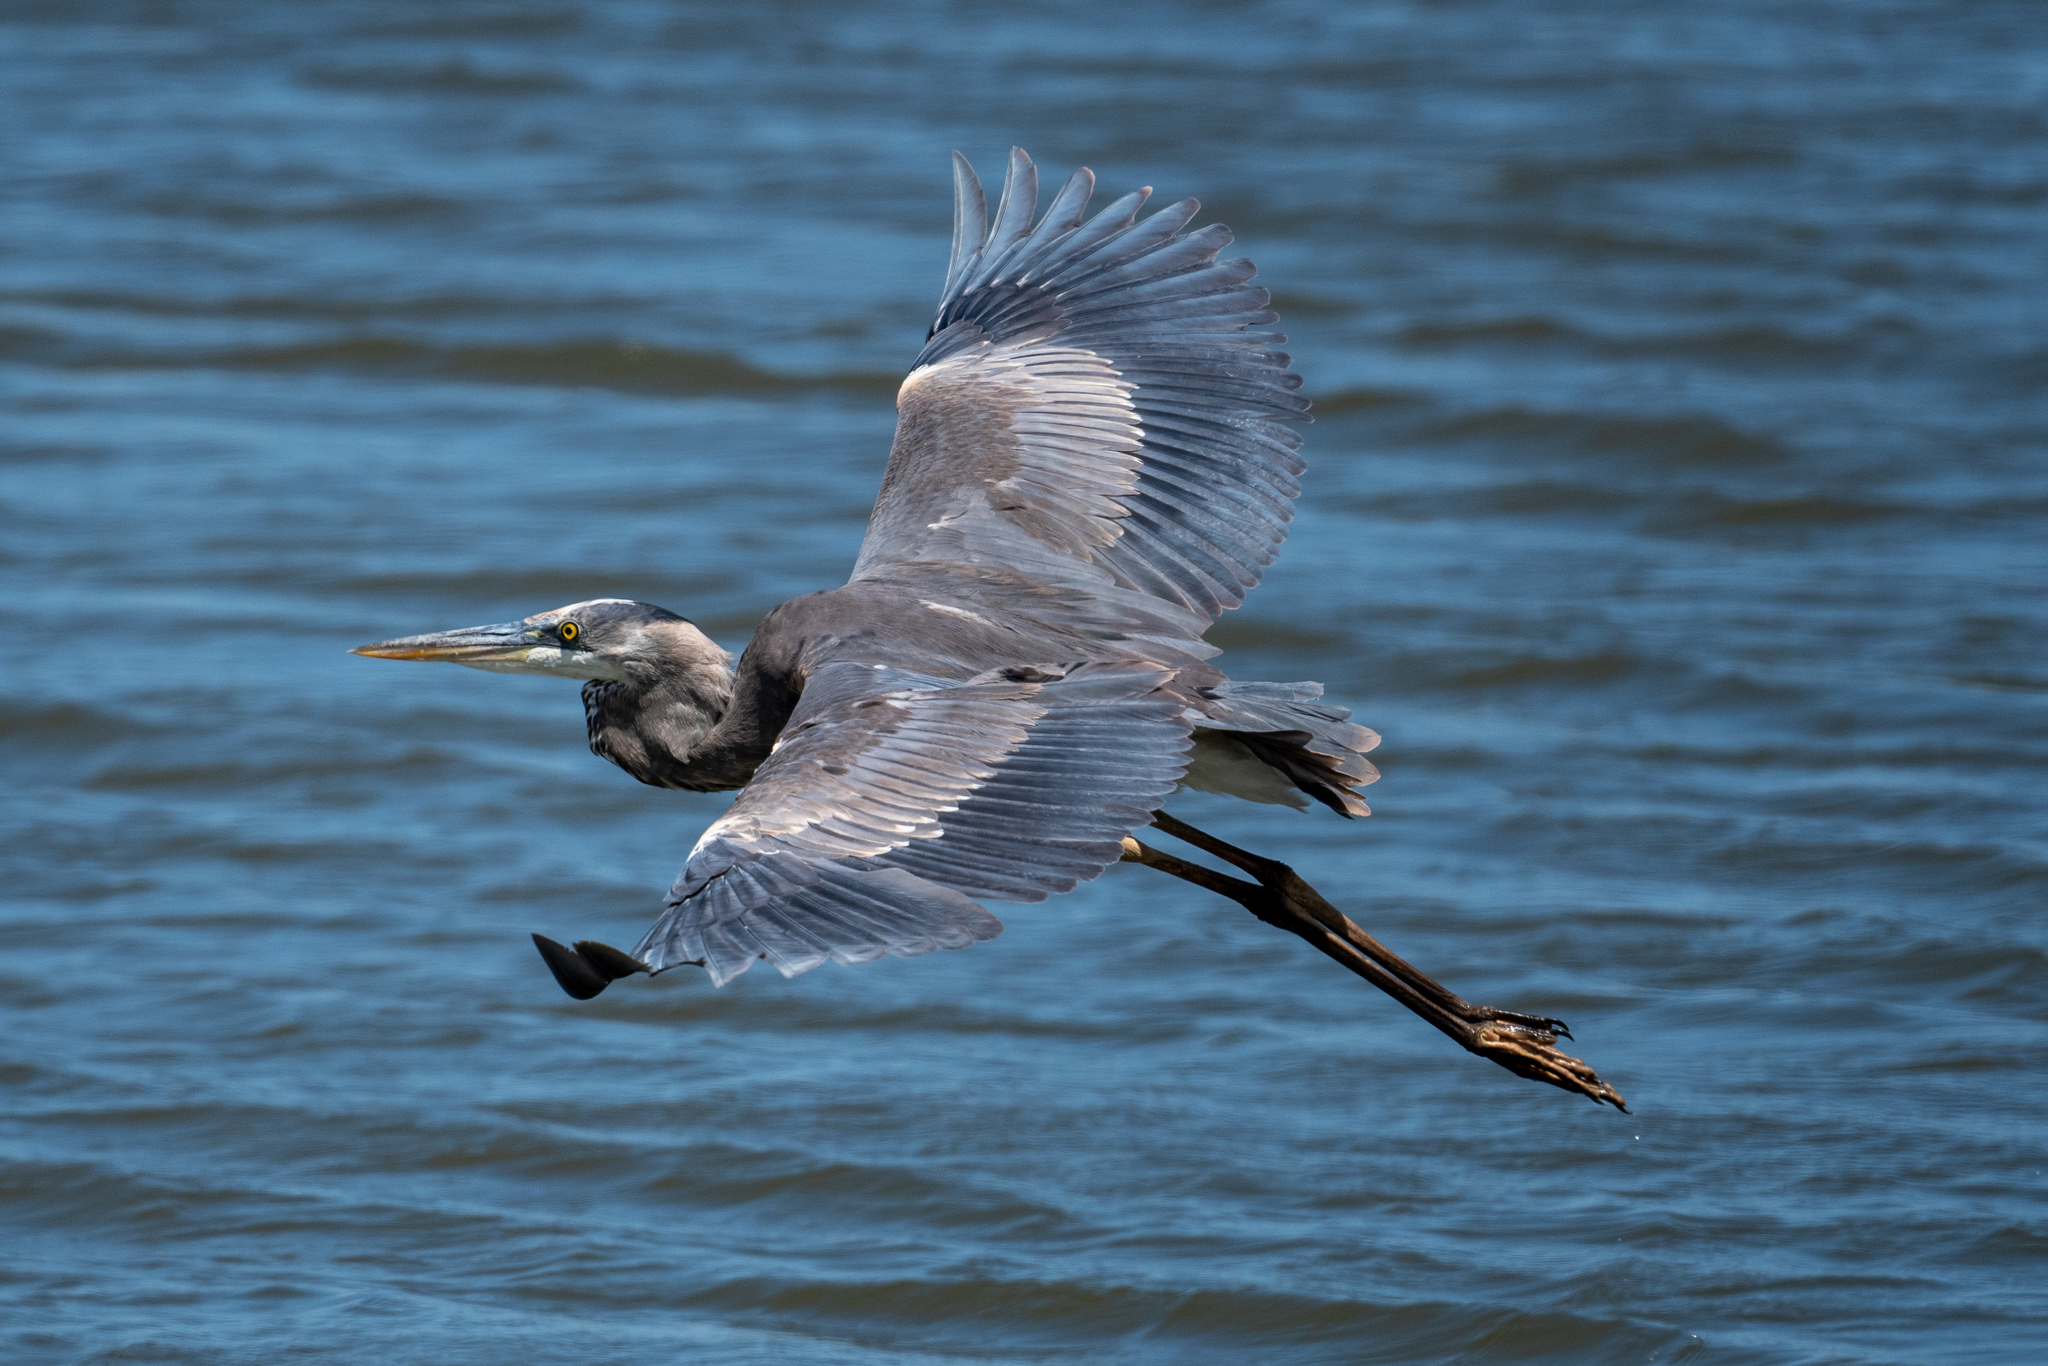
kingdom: Animalia
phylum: Chordata
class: Aves
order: Pelecaniformes
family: Ardeidae
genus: Ardea
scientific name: Ardea herodias
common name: Great blue heron
